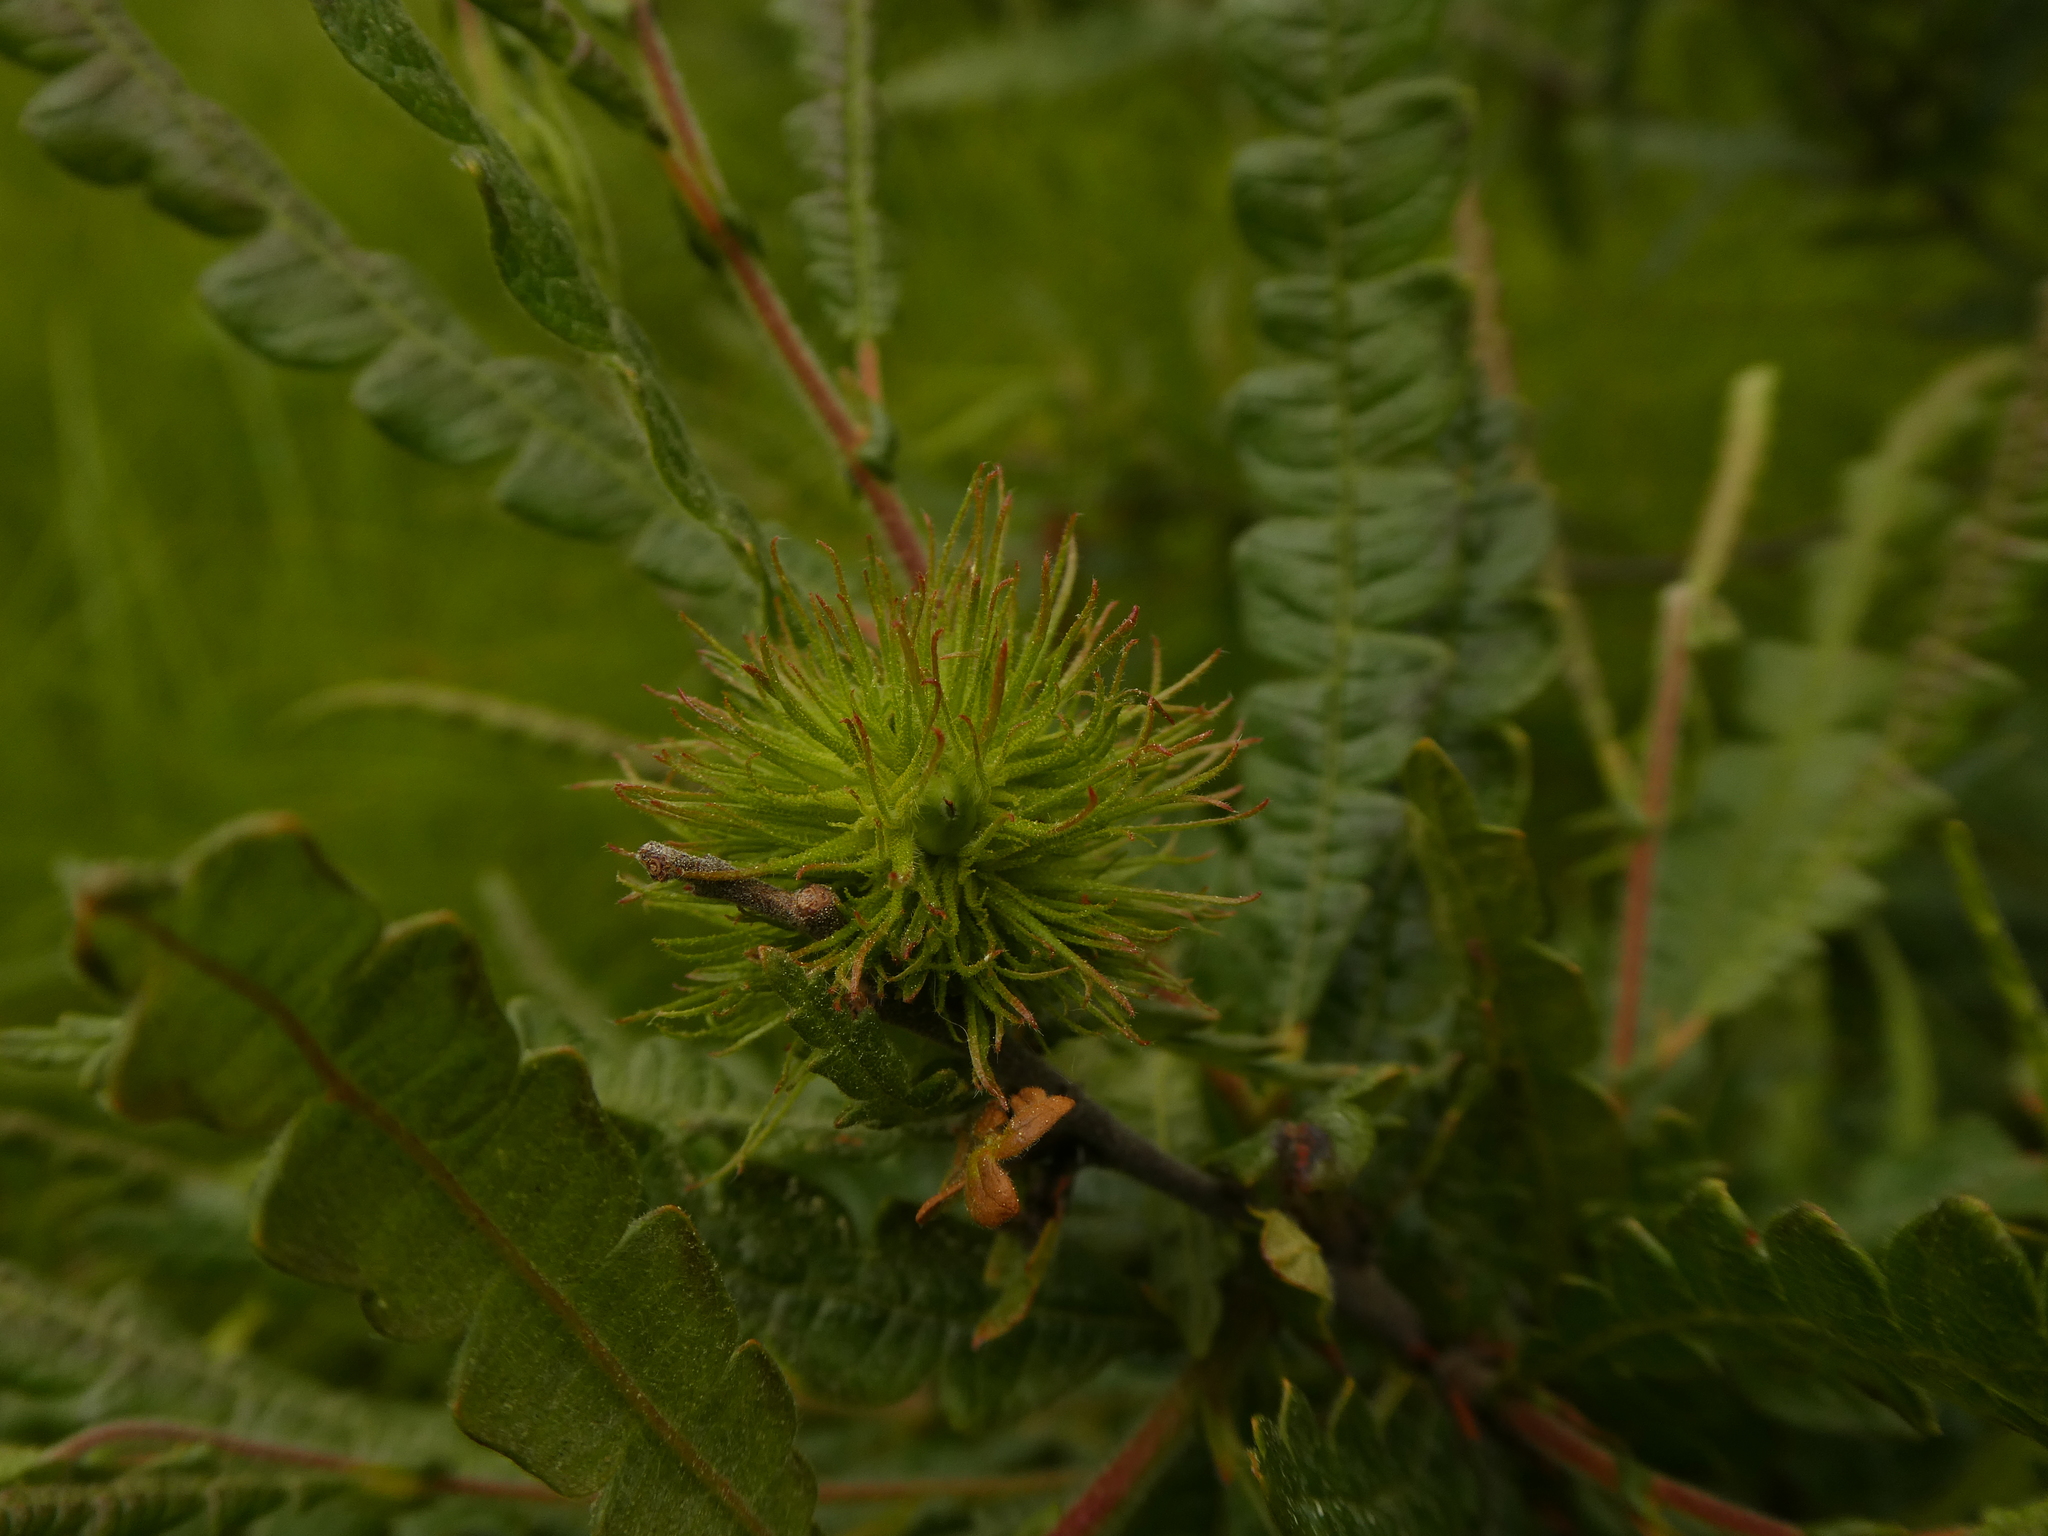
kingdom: Plantae
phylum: Tracheophyta
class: Magnoliopsida
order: Fagales
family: Myricaceae
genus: Comptonia
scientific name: Comptonia peregrina
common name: Sweet-fern
